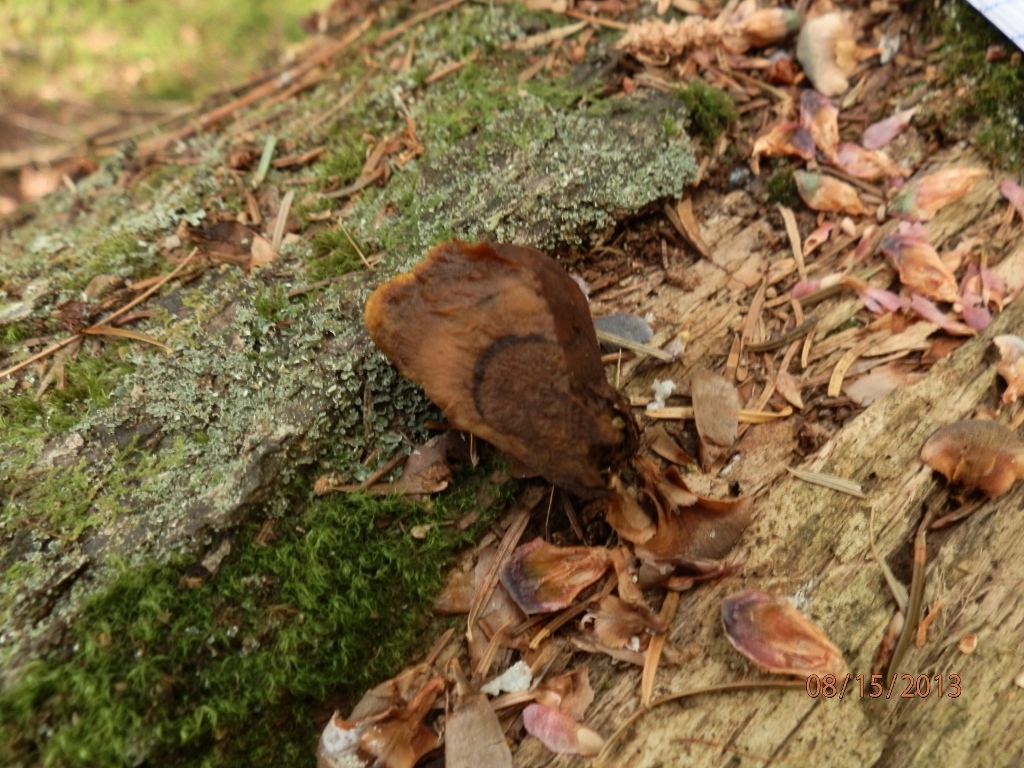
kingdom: Fungi
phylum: Basidiomycota
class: Agaricomycetes
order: Polyporales
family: Laetiporaceae
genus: Phaeolus
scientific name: Phaeolus schweinitzii
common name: Dyer's mazegill
